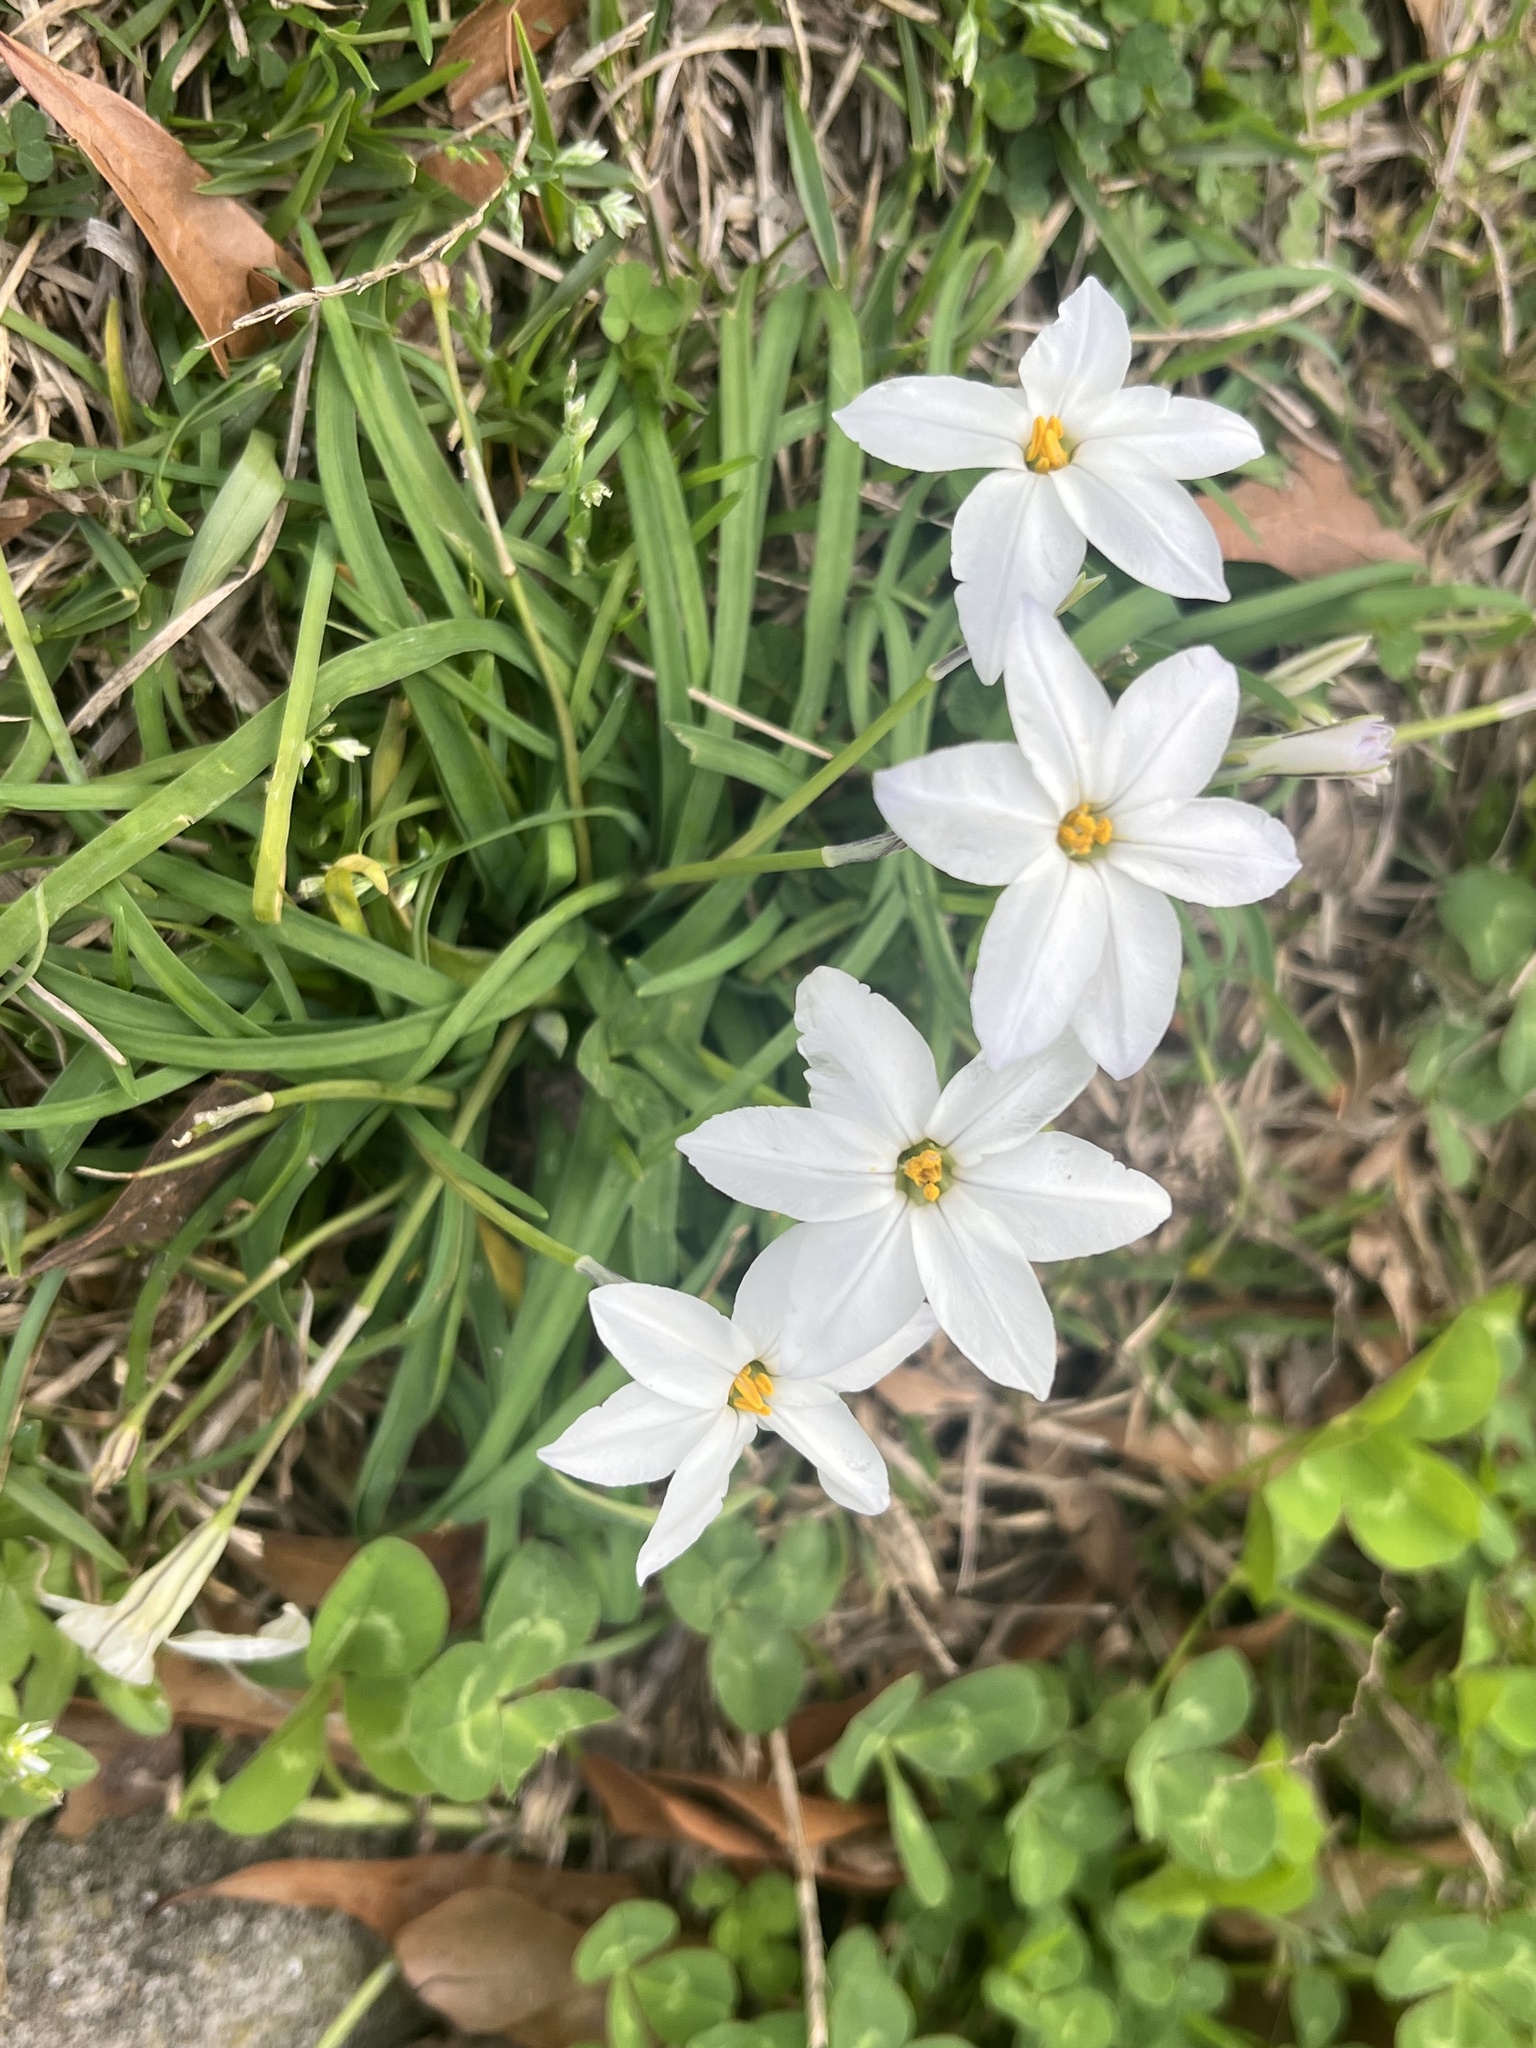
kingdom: Plantae
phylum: Tracheophyta
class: Liliopsida
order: Asparagales
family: Amaryllidaceae
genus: Ipheion
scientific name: Ipheion uniflorum
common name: Spring starflower
